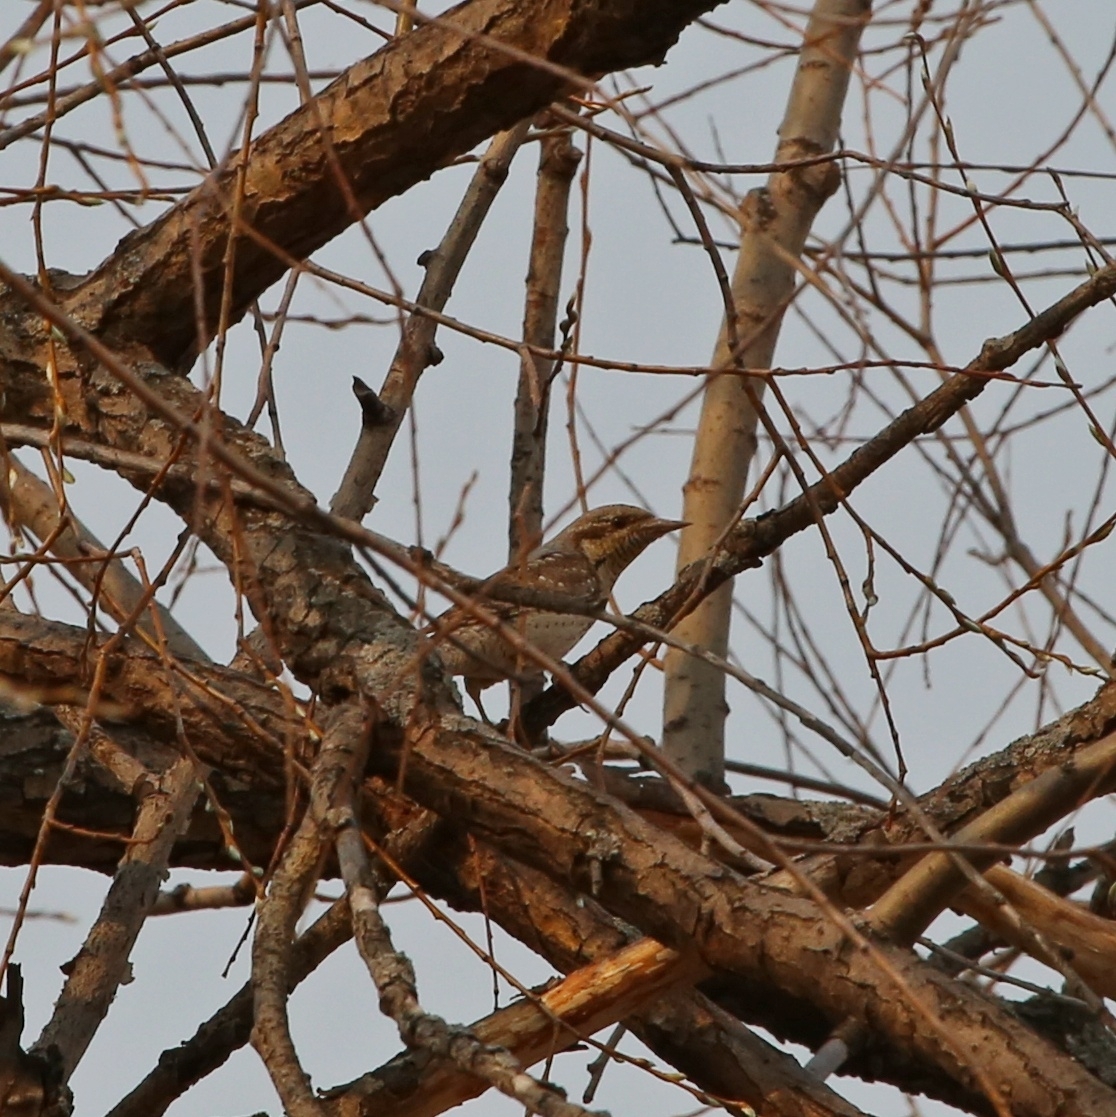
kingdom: Animalia
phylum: Chordata
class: Aves
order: Piciformes
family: Picidae
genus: Jynx
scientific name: Jynx torquilla
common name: Eurasian wryneck
